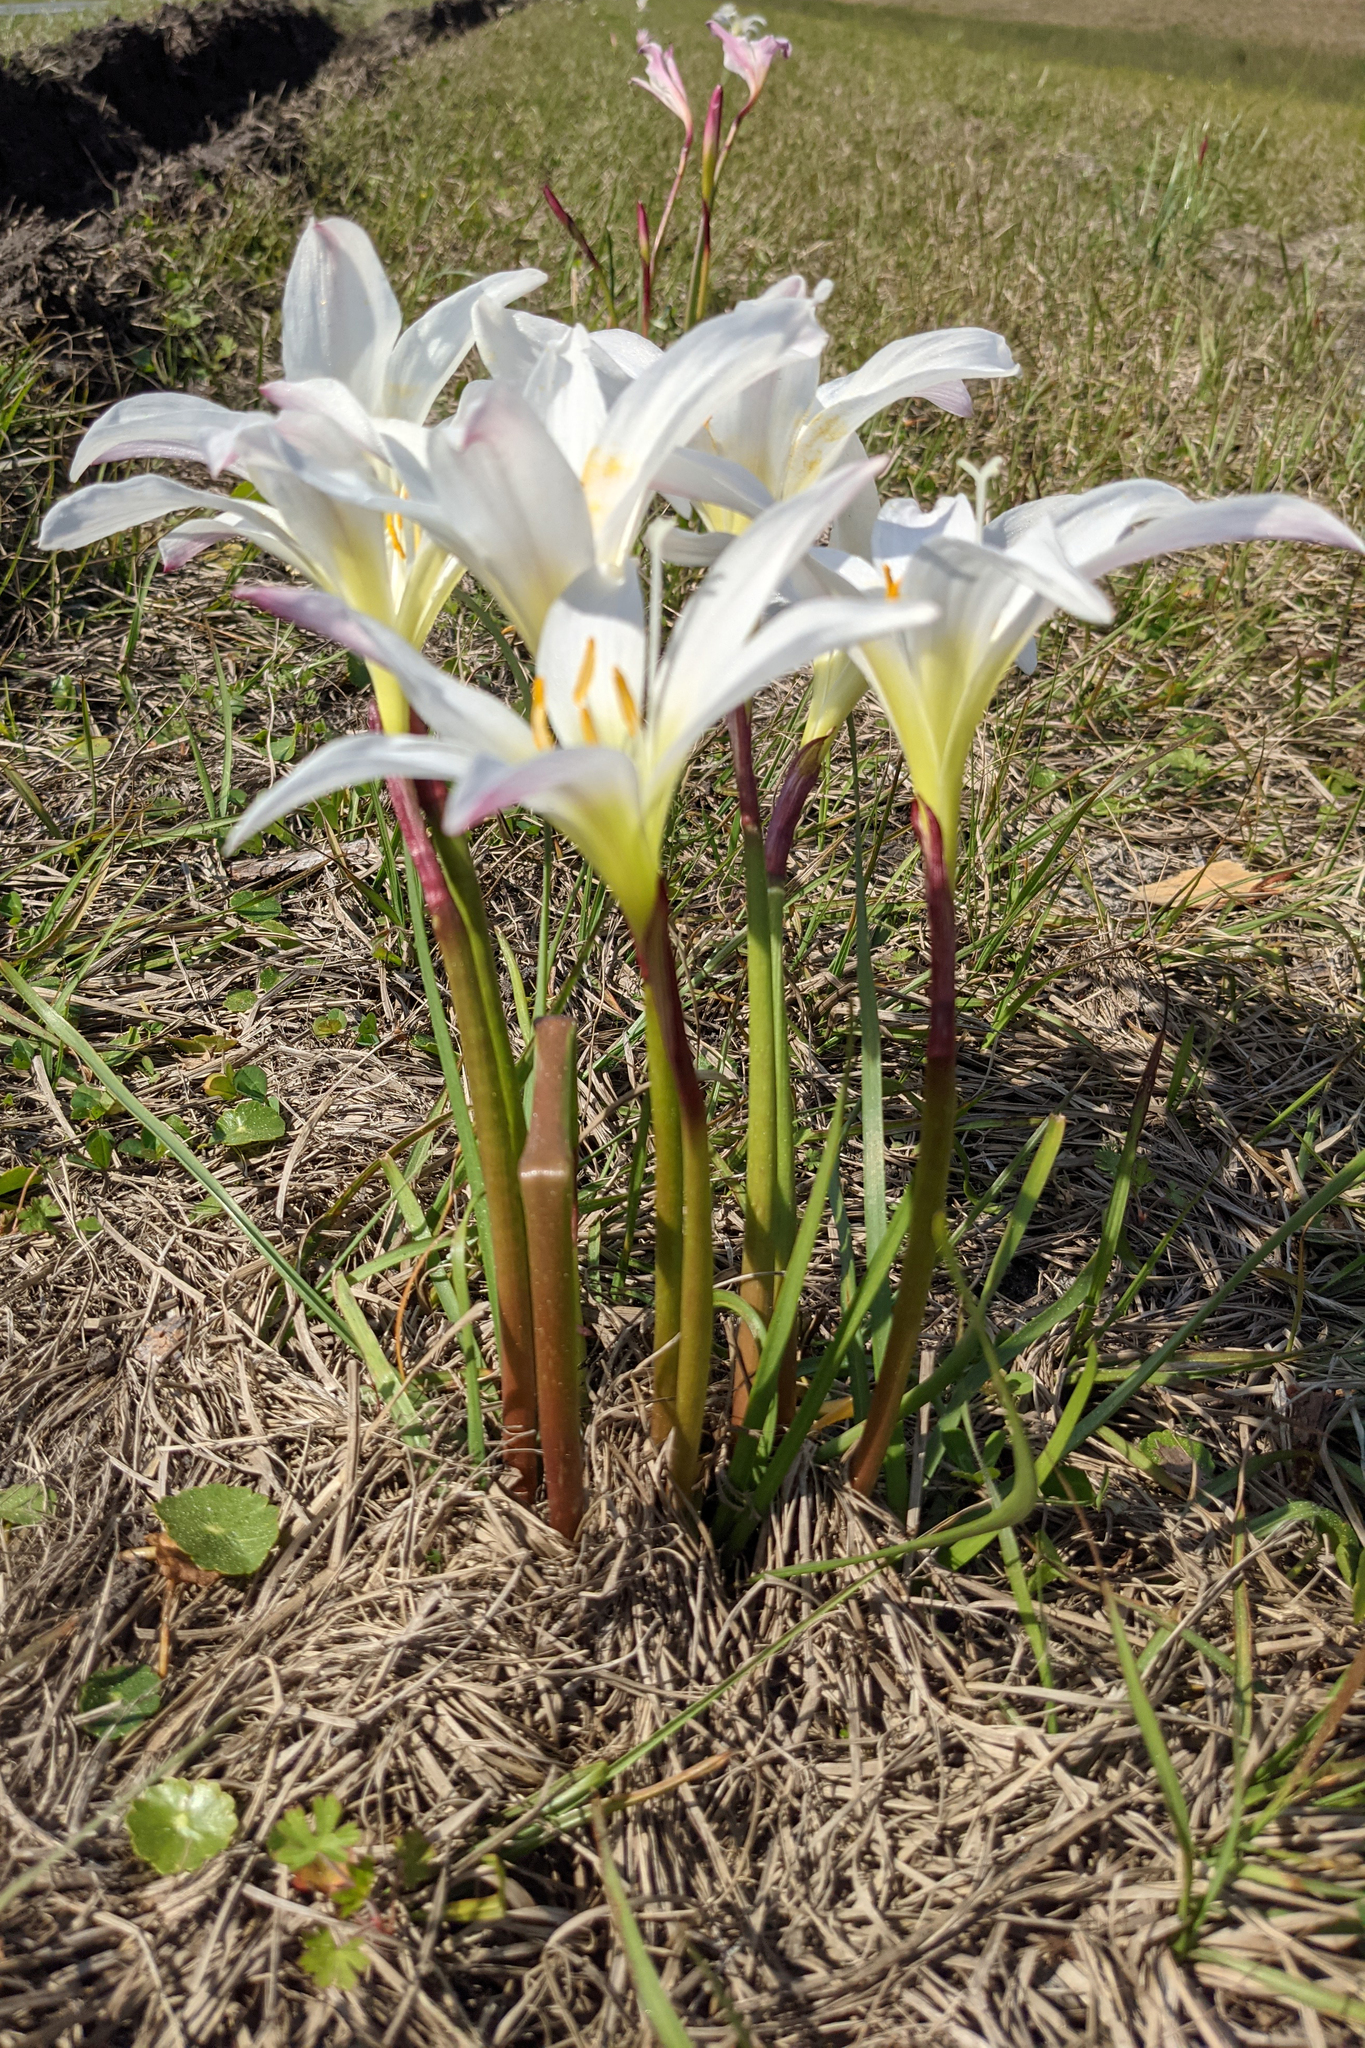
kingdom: Plantae
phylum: Tracheophyta
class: Liliopsida
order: Asparagales
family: Amaryllidaceae
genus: Zephyranthes
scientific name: Zephyranthes atamasco
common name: Atamasco lily
